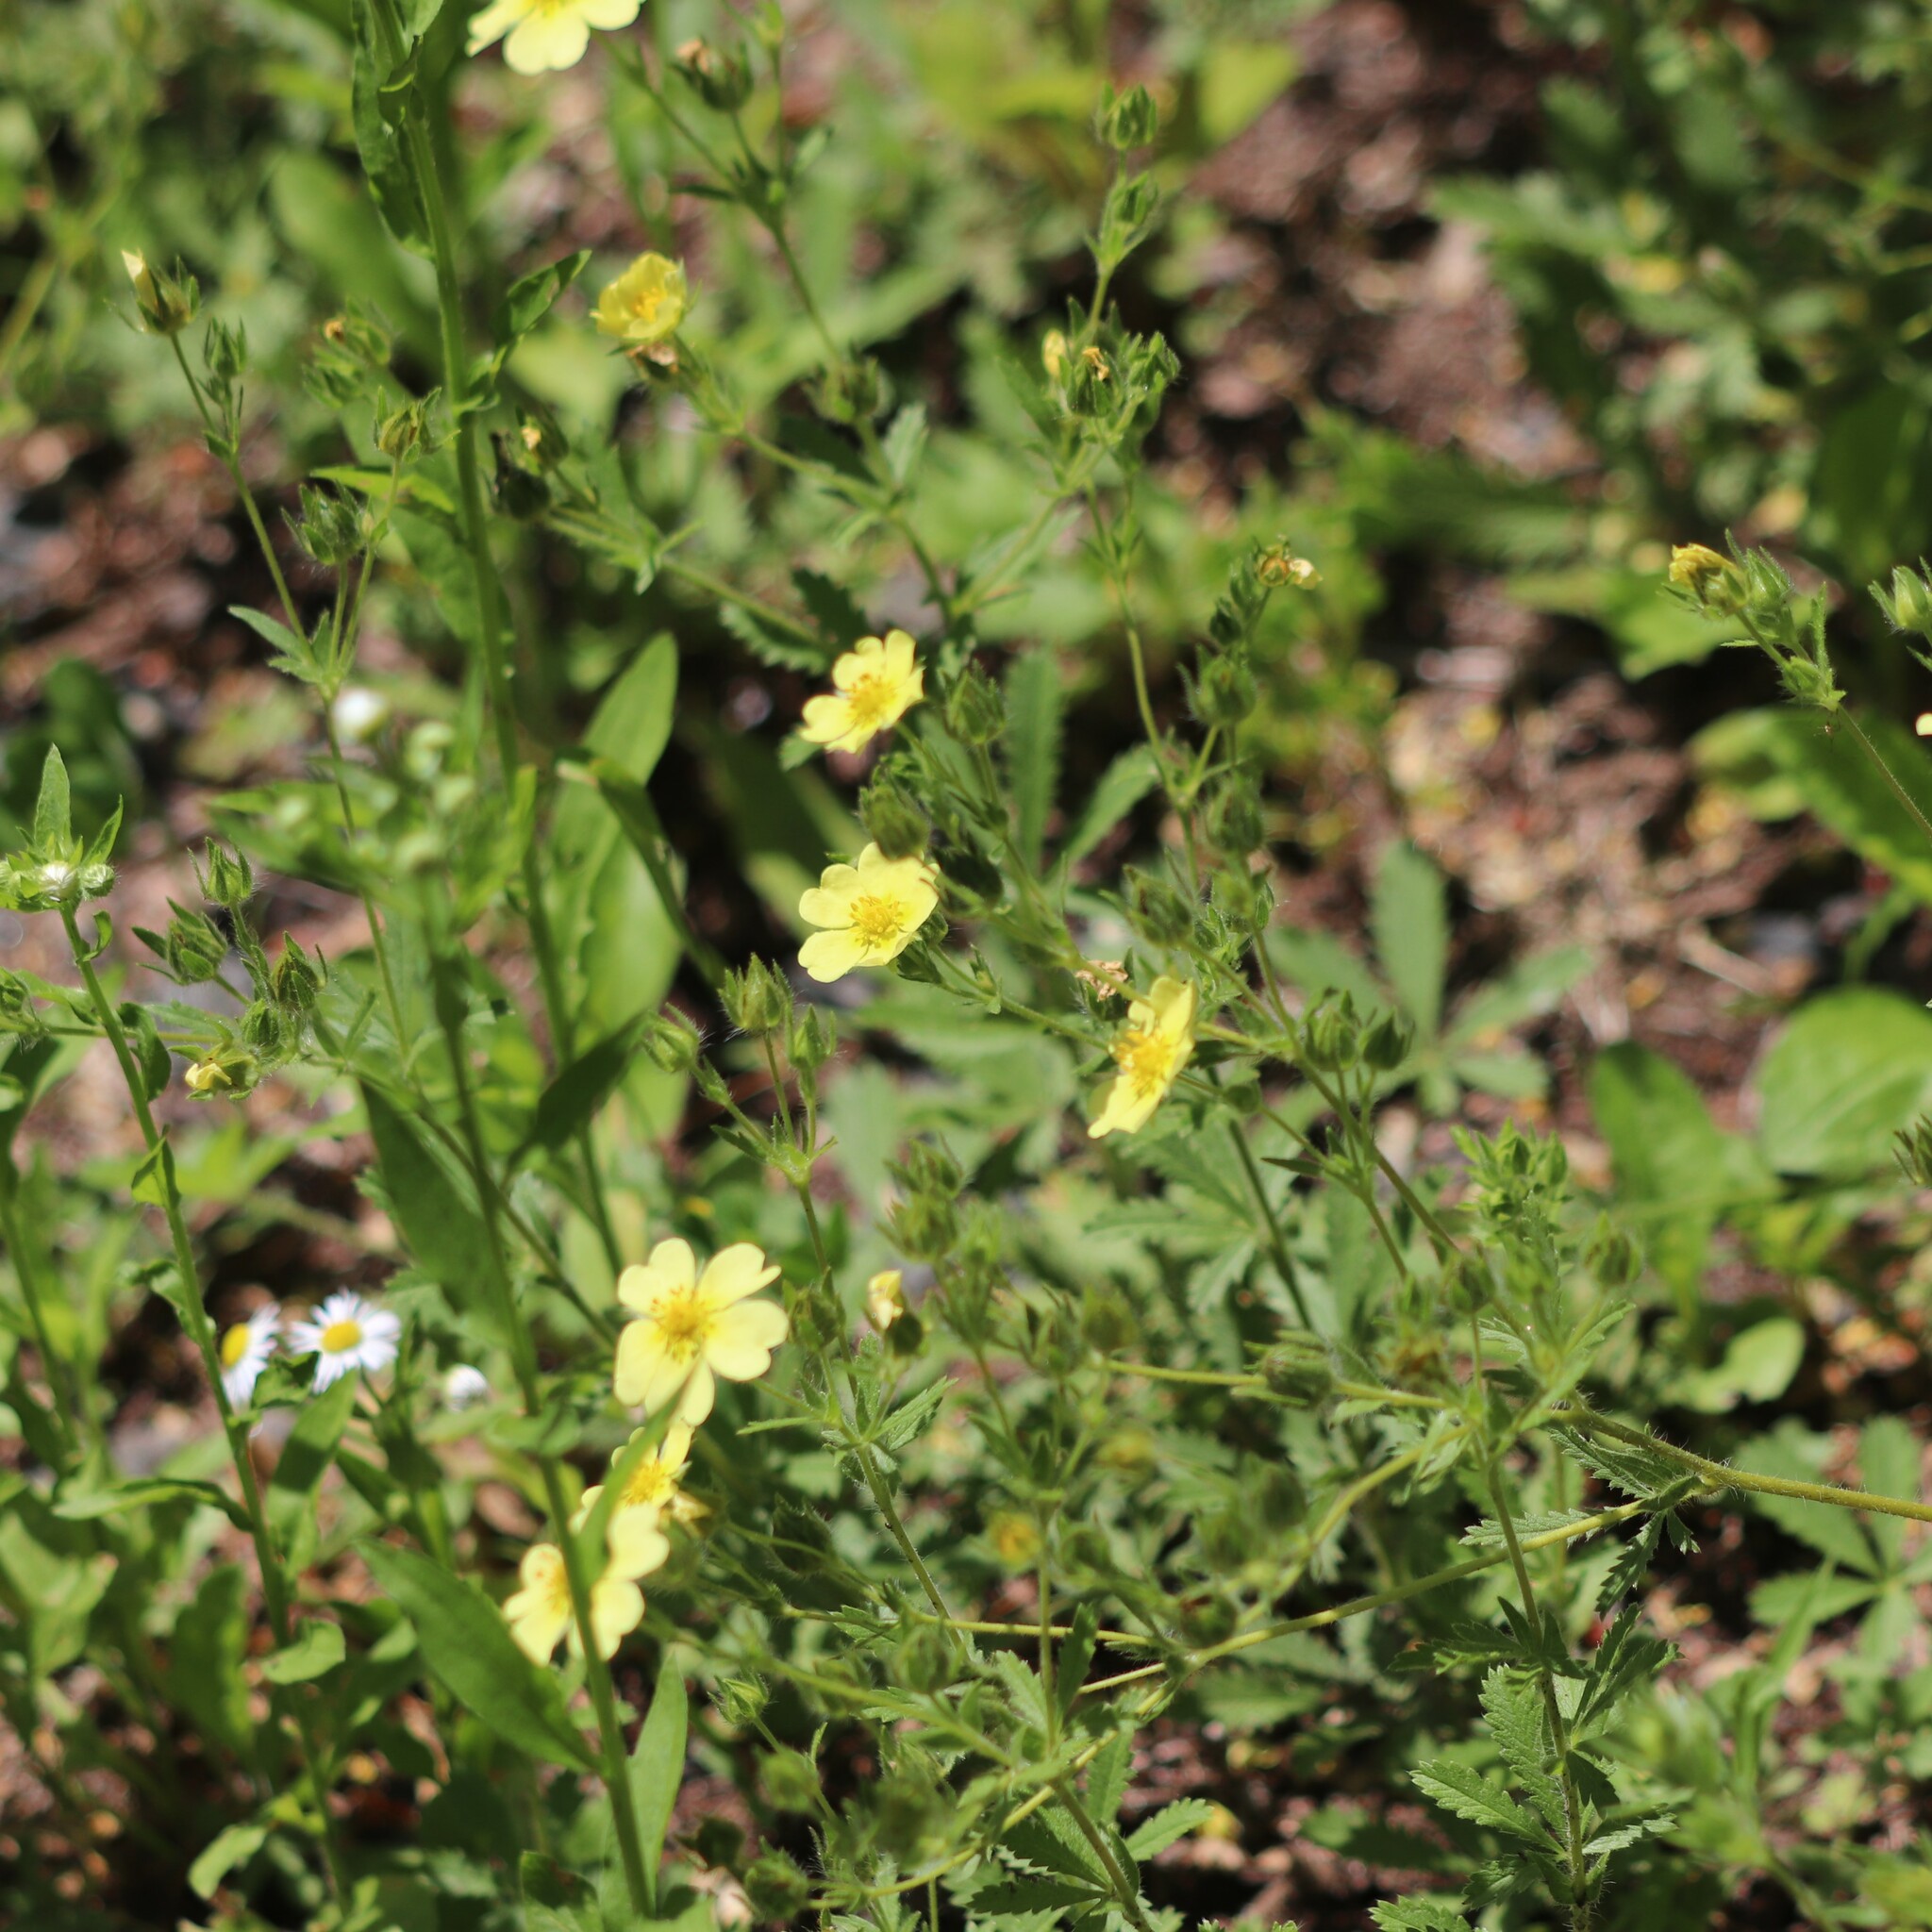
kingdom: Plantae
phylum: Tracheophyta
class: Magnoliopsida
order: Rosales
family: Rosaceae
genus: Potentilla
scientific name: Potentilla recta
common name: Sulphur cinquefoil
